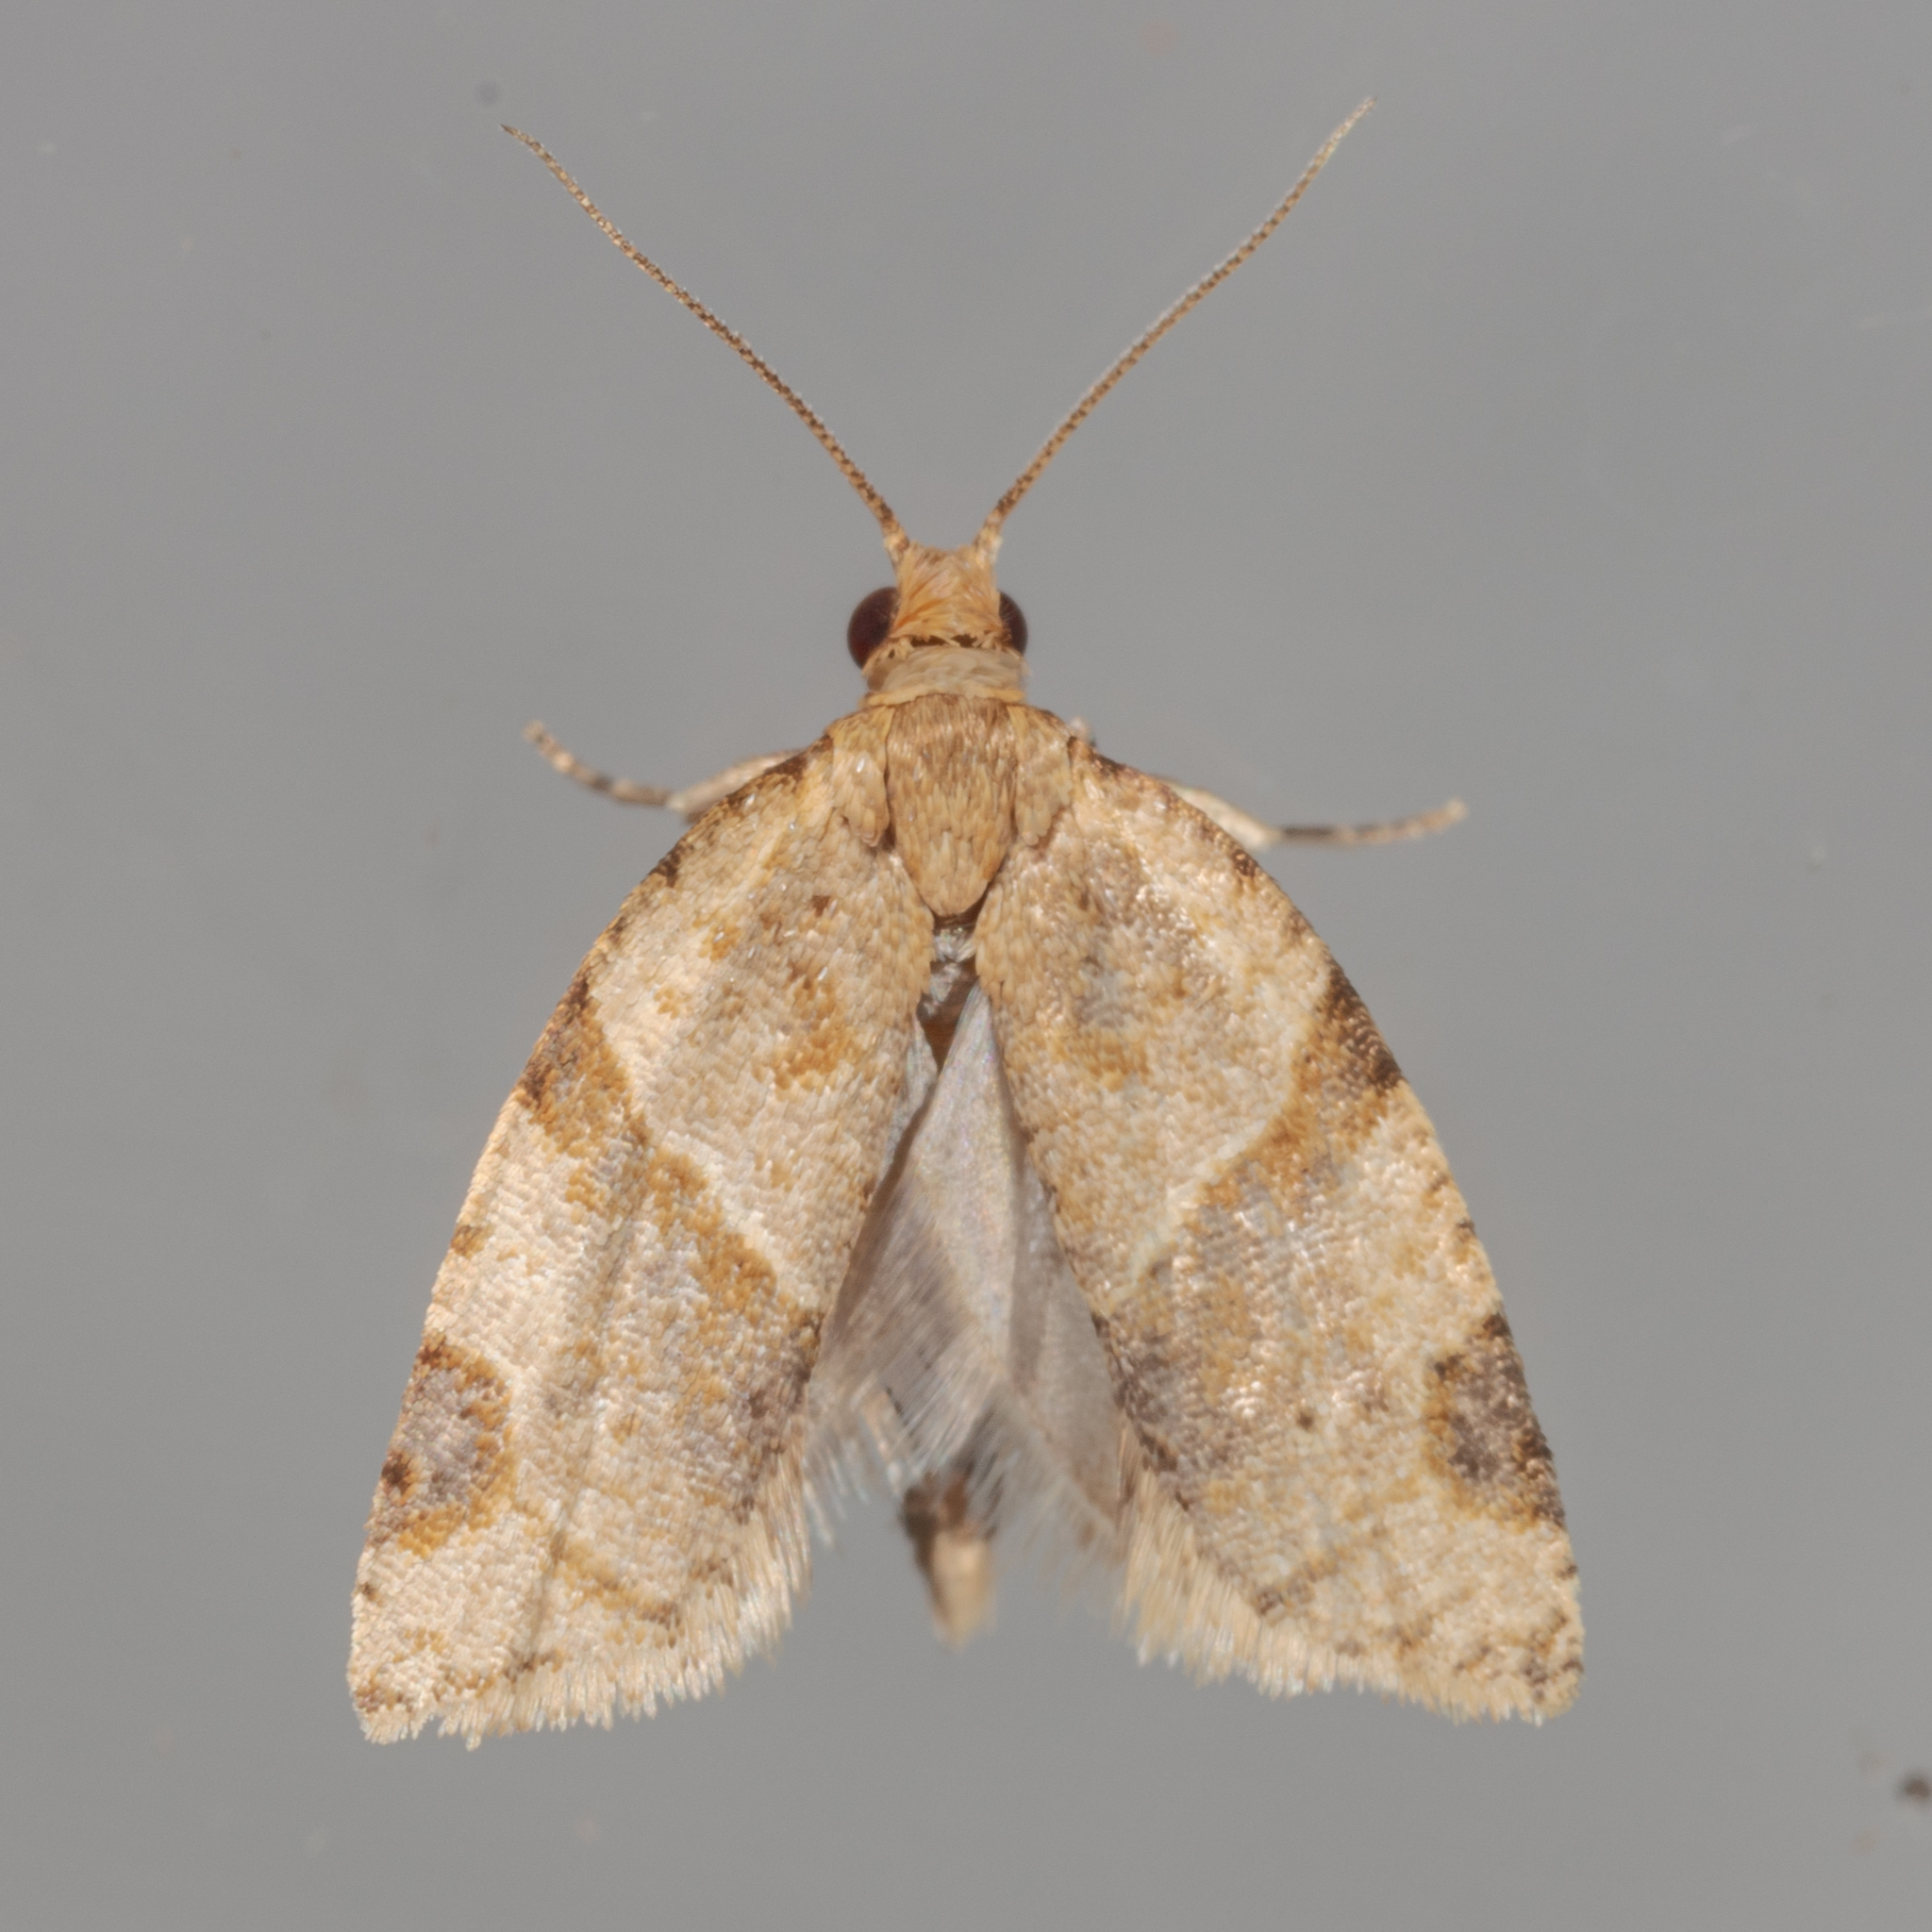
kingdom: Animalia
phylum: Arthropoda
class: Insecta
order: Lepidoptera
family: Tortricidae
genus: Clepsis
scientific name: Clepsis peritana
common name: Garden tortrix
